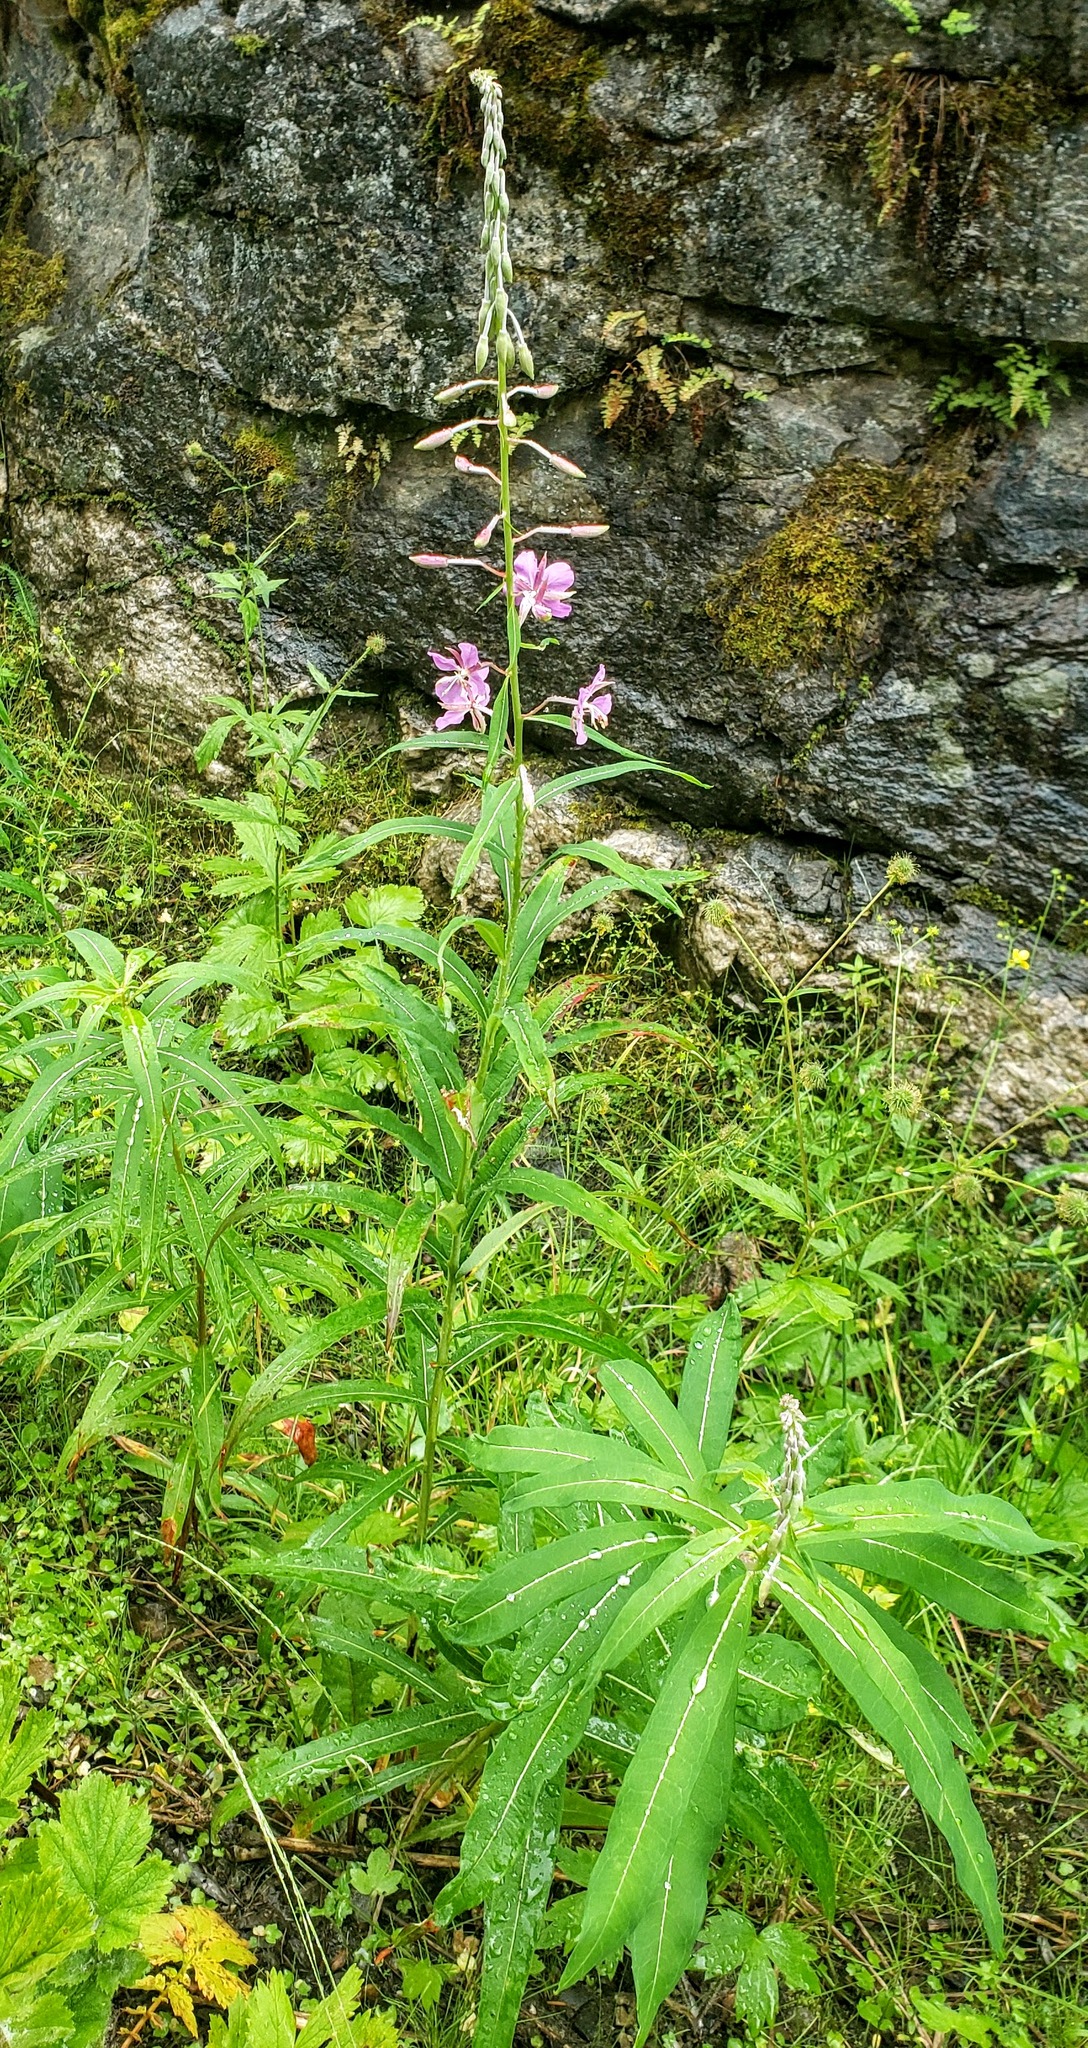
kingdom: Plantae
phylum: Tracheophyta
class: Magnoliopsida
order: Myrtales
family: Onagraceae
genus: Chamaenerion
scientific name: Chamaenerion angustifolium
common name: Fireweed
